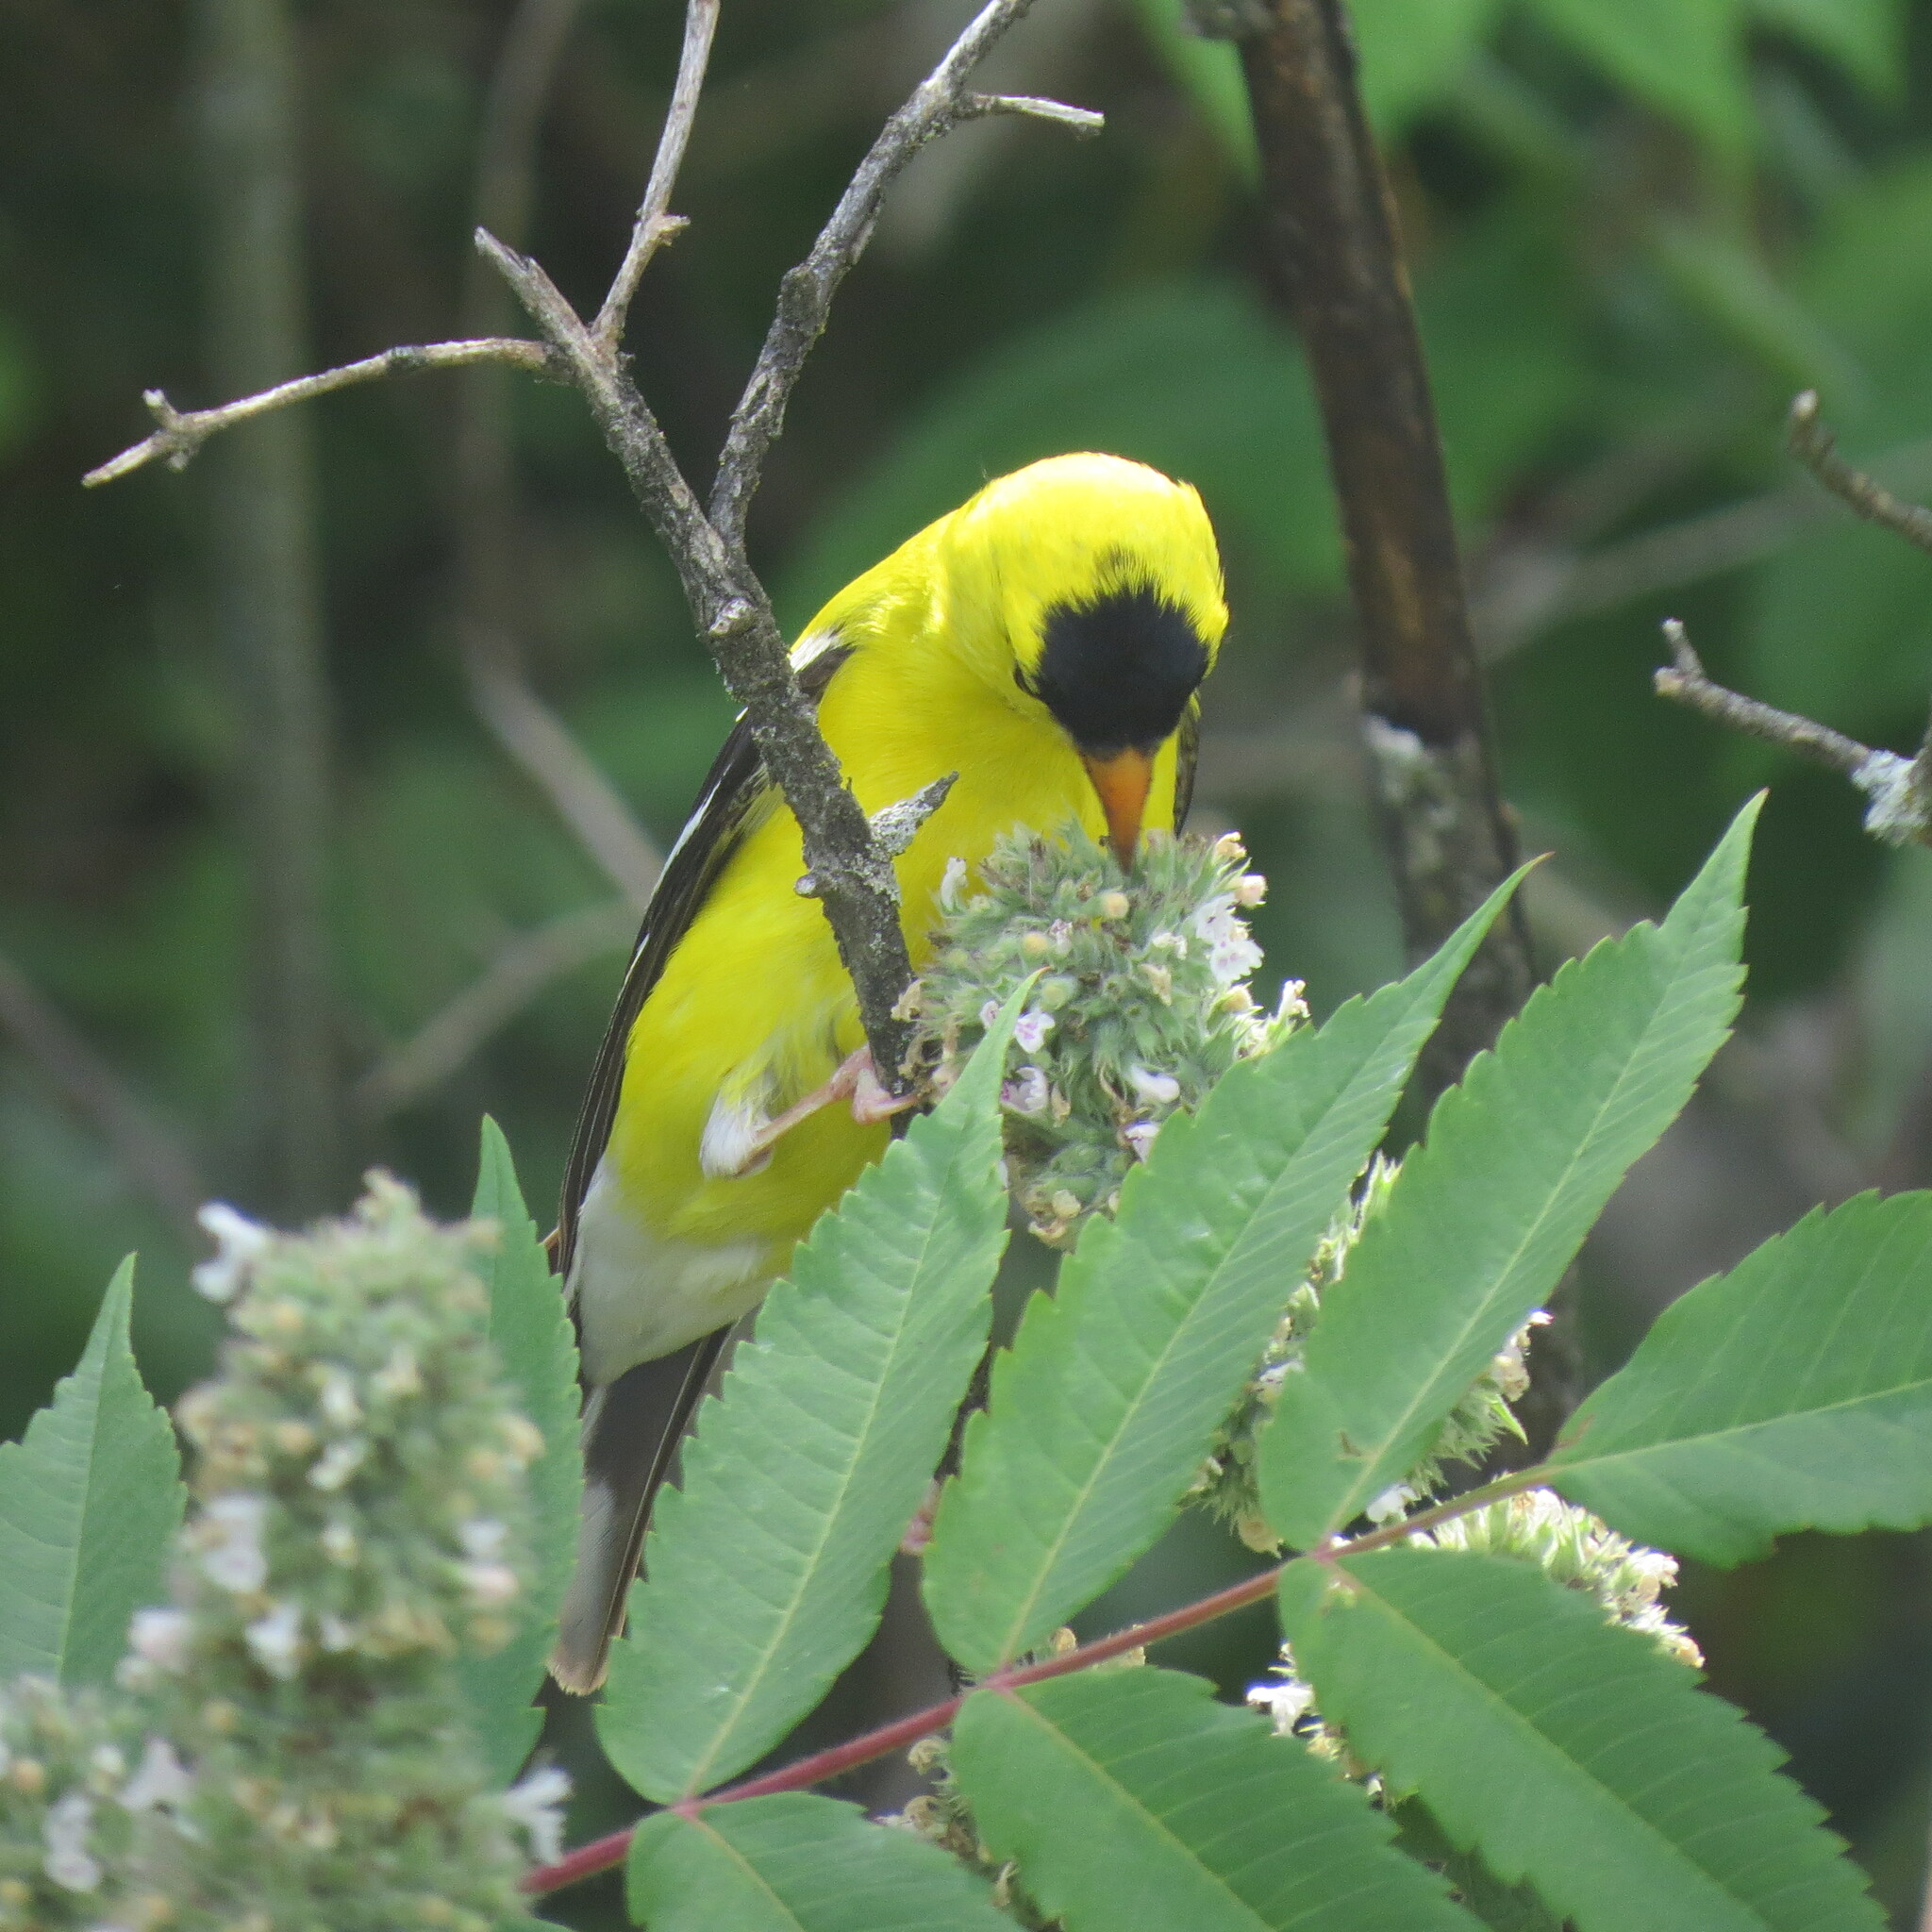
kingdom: Animalia
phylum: Chordata
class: Aves
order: Passeriformes
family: Fringillidae
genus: Spinus
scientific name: Spinus tristis
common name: American goldfinch
